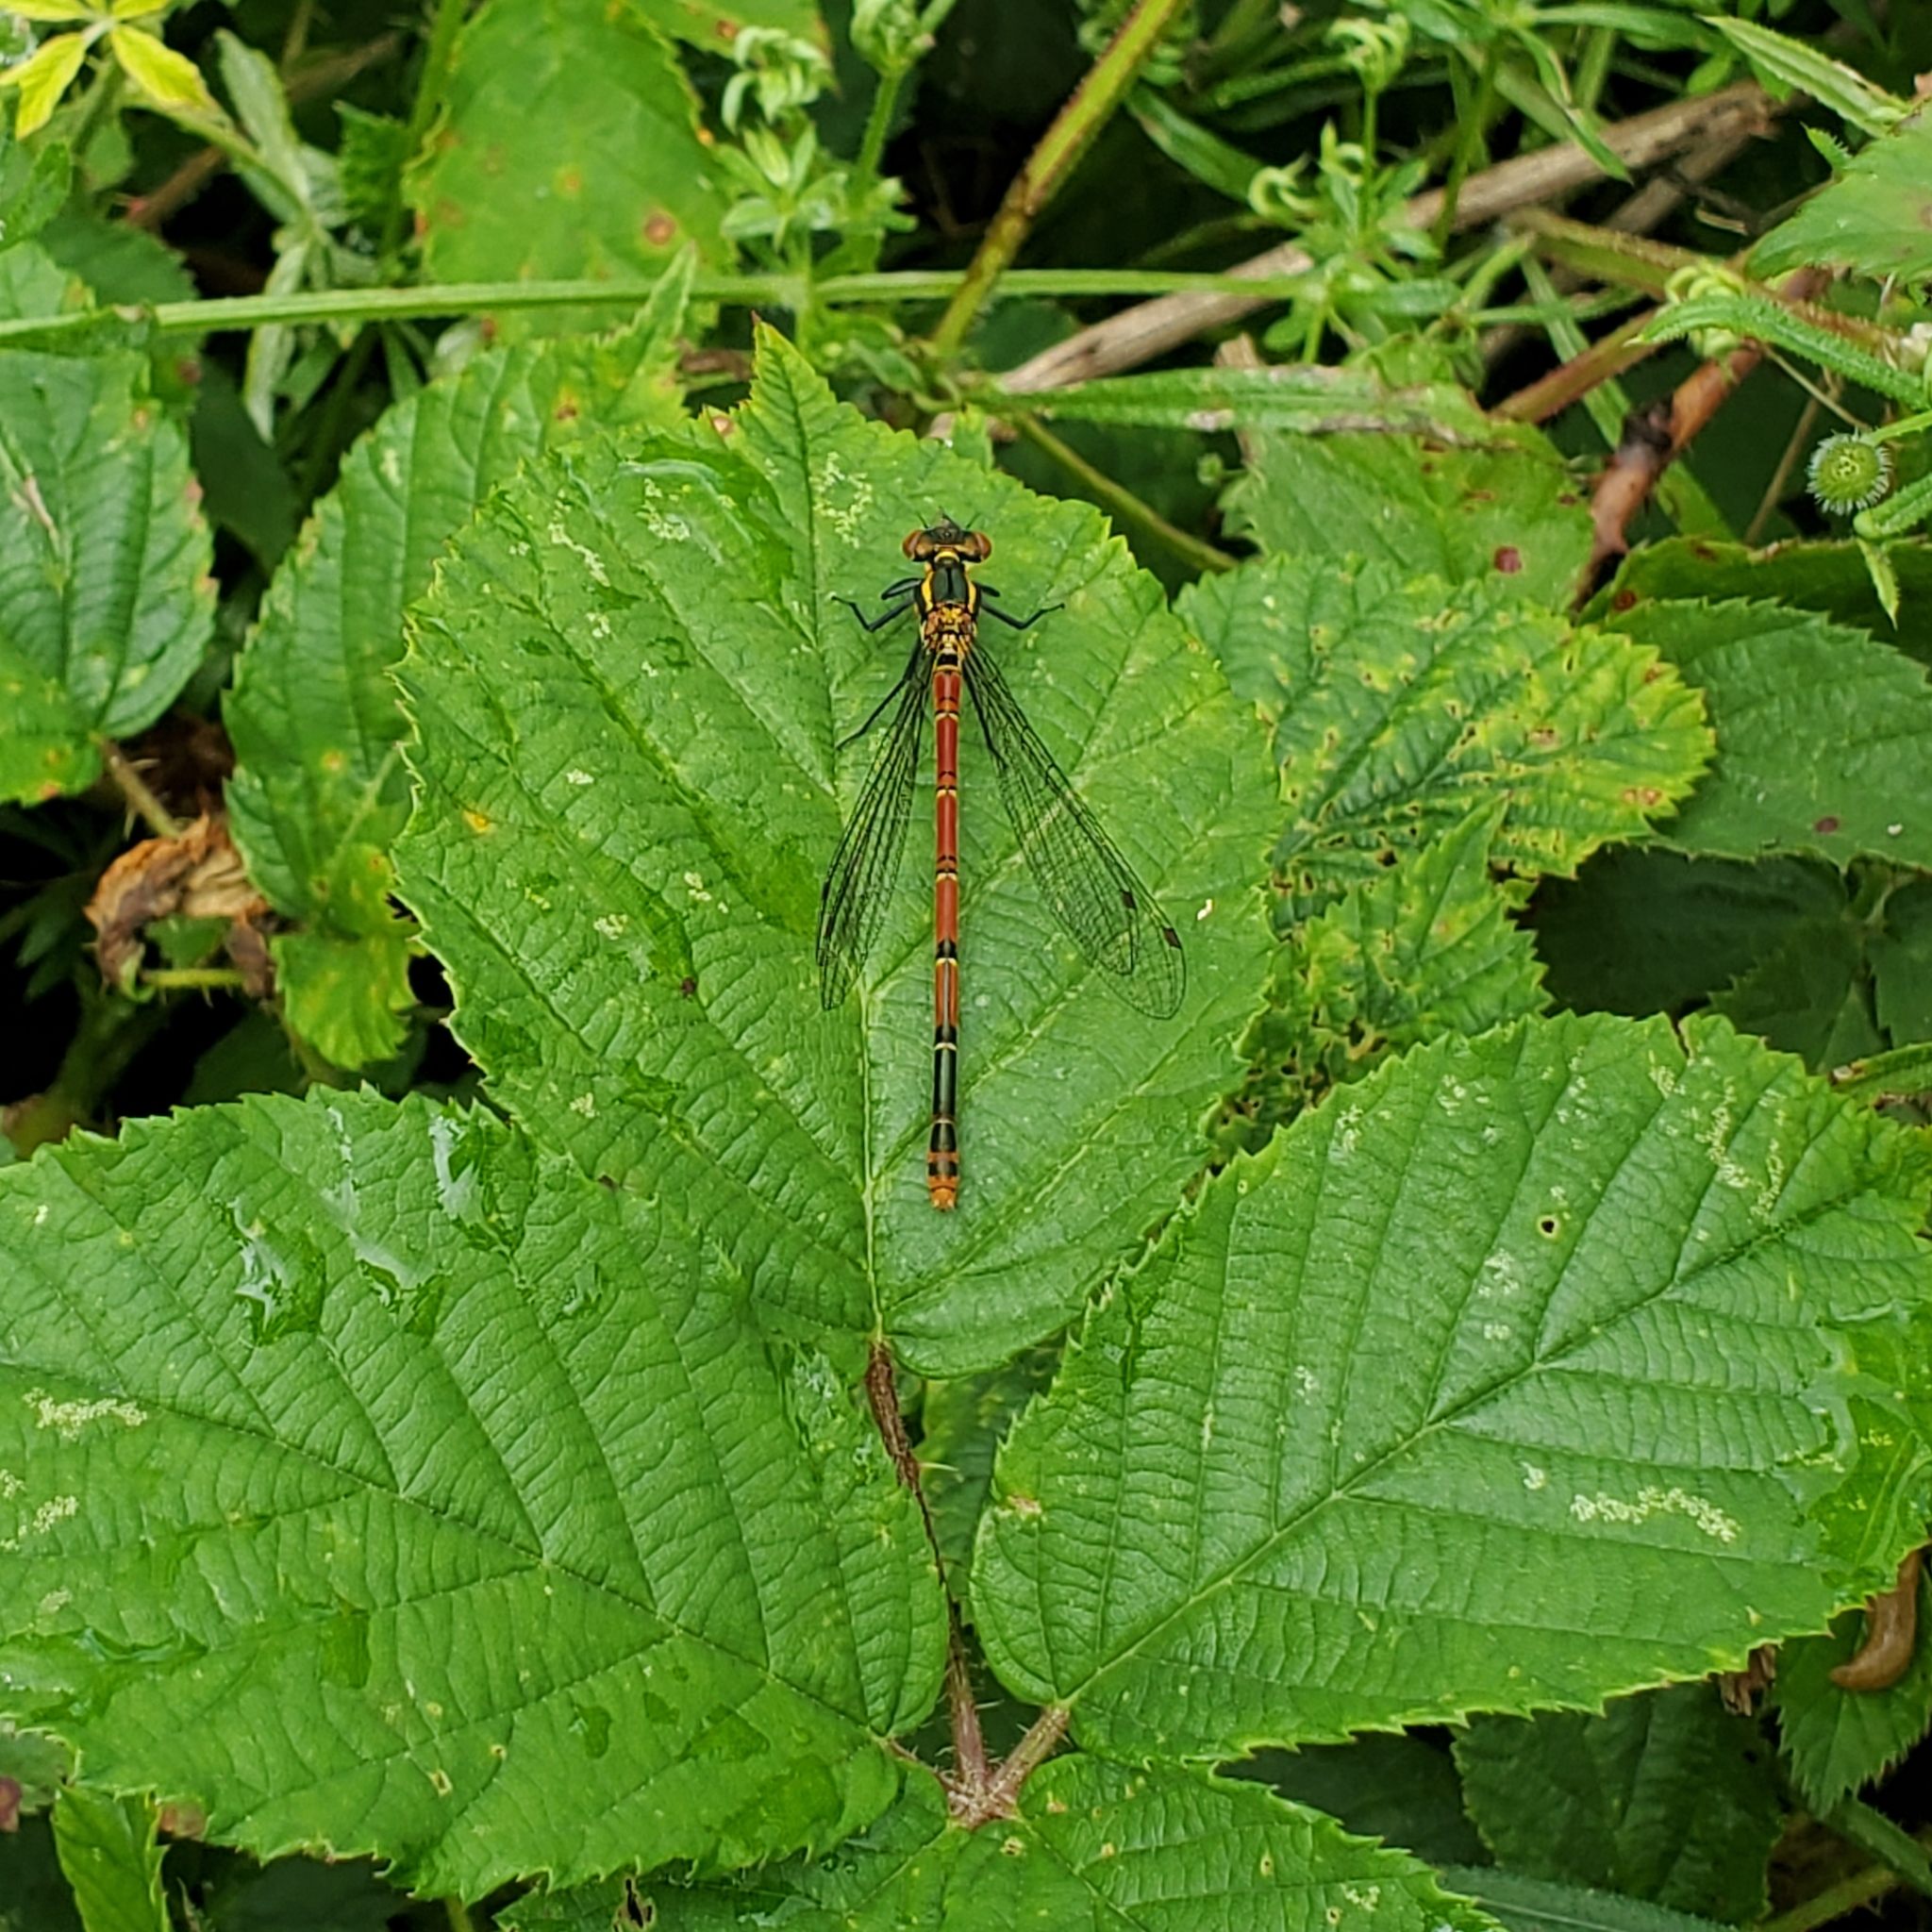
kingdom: Animalia
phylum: Arthropoda
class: Insecta
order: Odonata
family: Coenagrionidae
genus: Pyrrhosoma
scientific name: Pyrrhosoma nymphula
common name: Large red damsel
